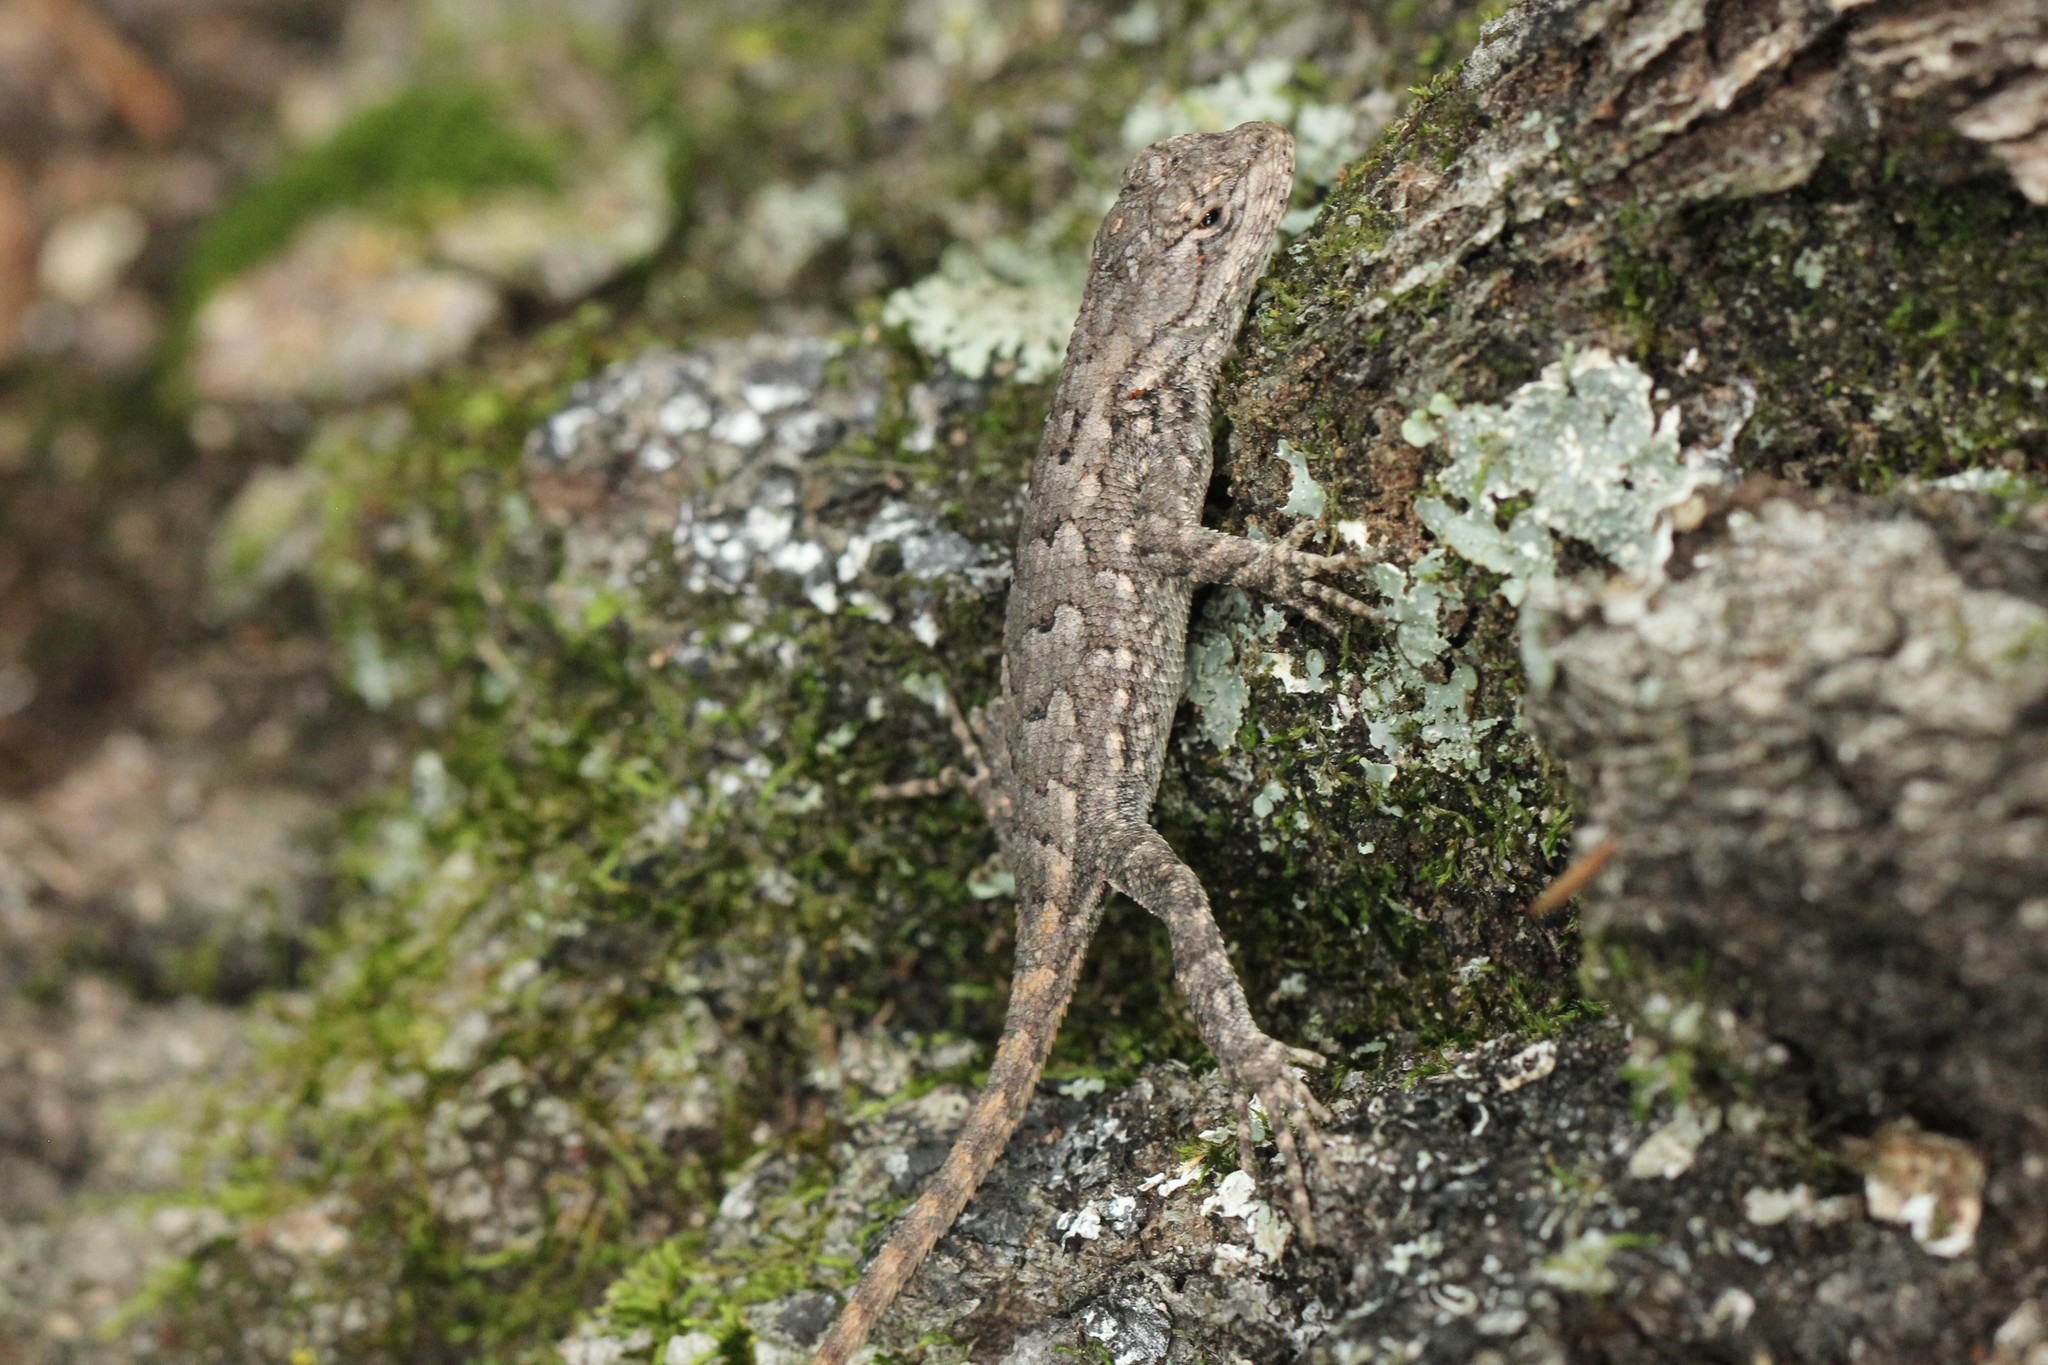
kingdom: Animalia
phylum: Chordata
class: Squamata
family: Phrynosomatidae
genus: Sceloporus
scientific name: Sceloporus undulatus
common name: Eastern fence lizard
